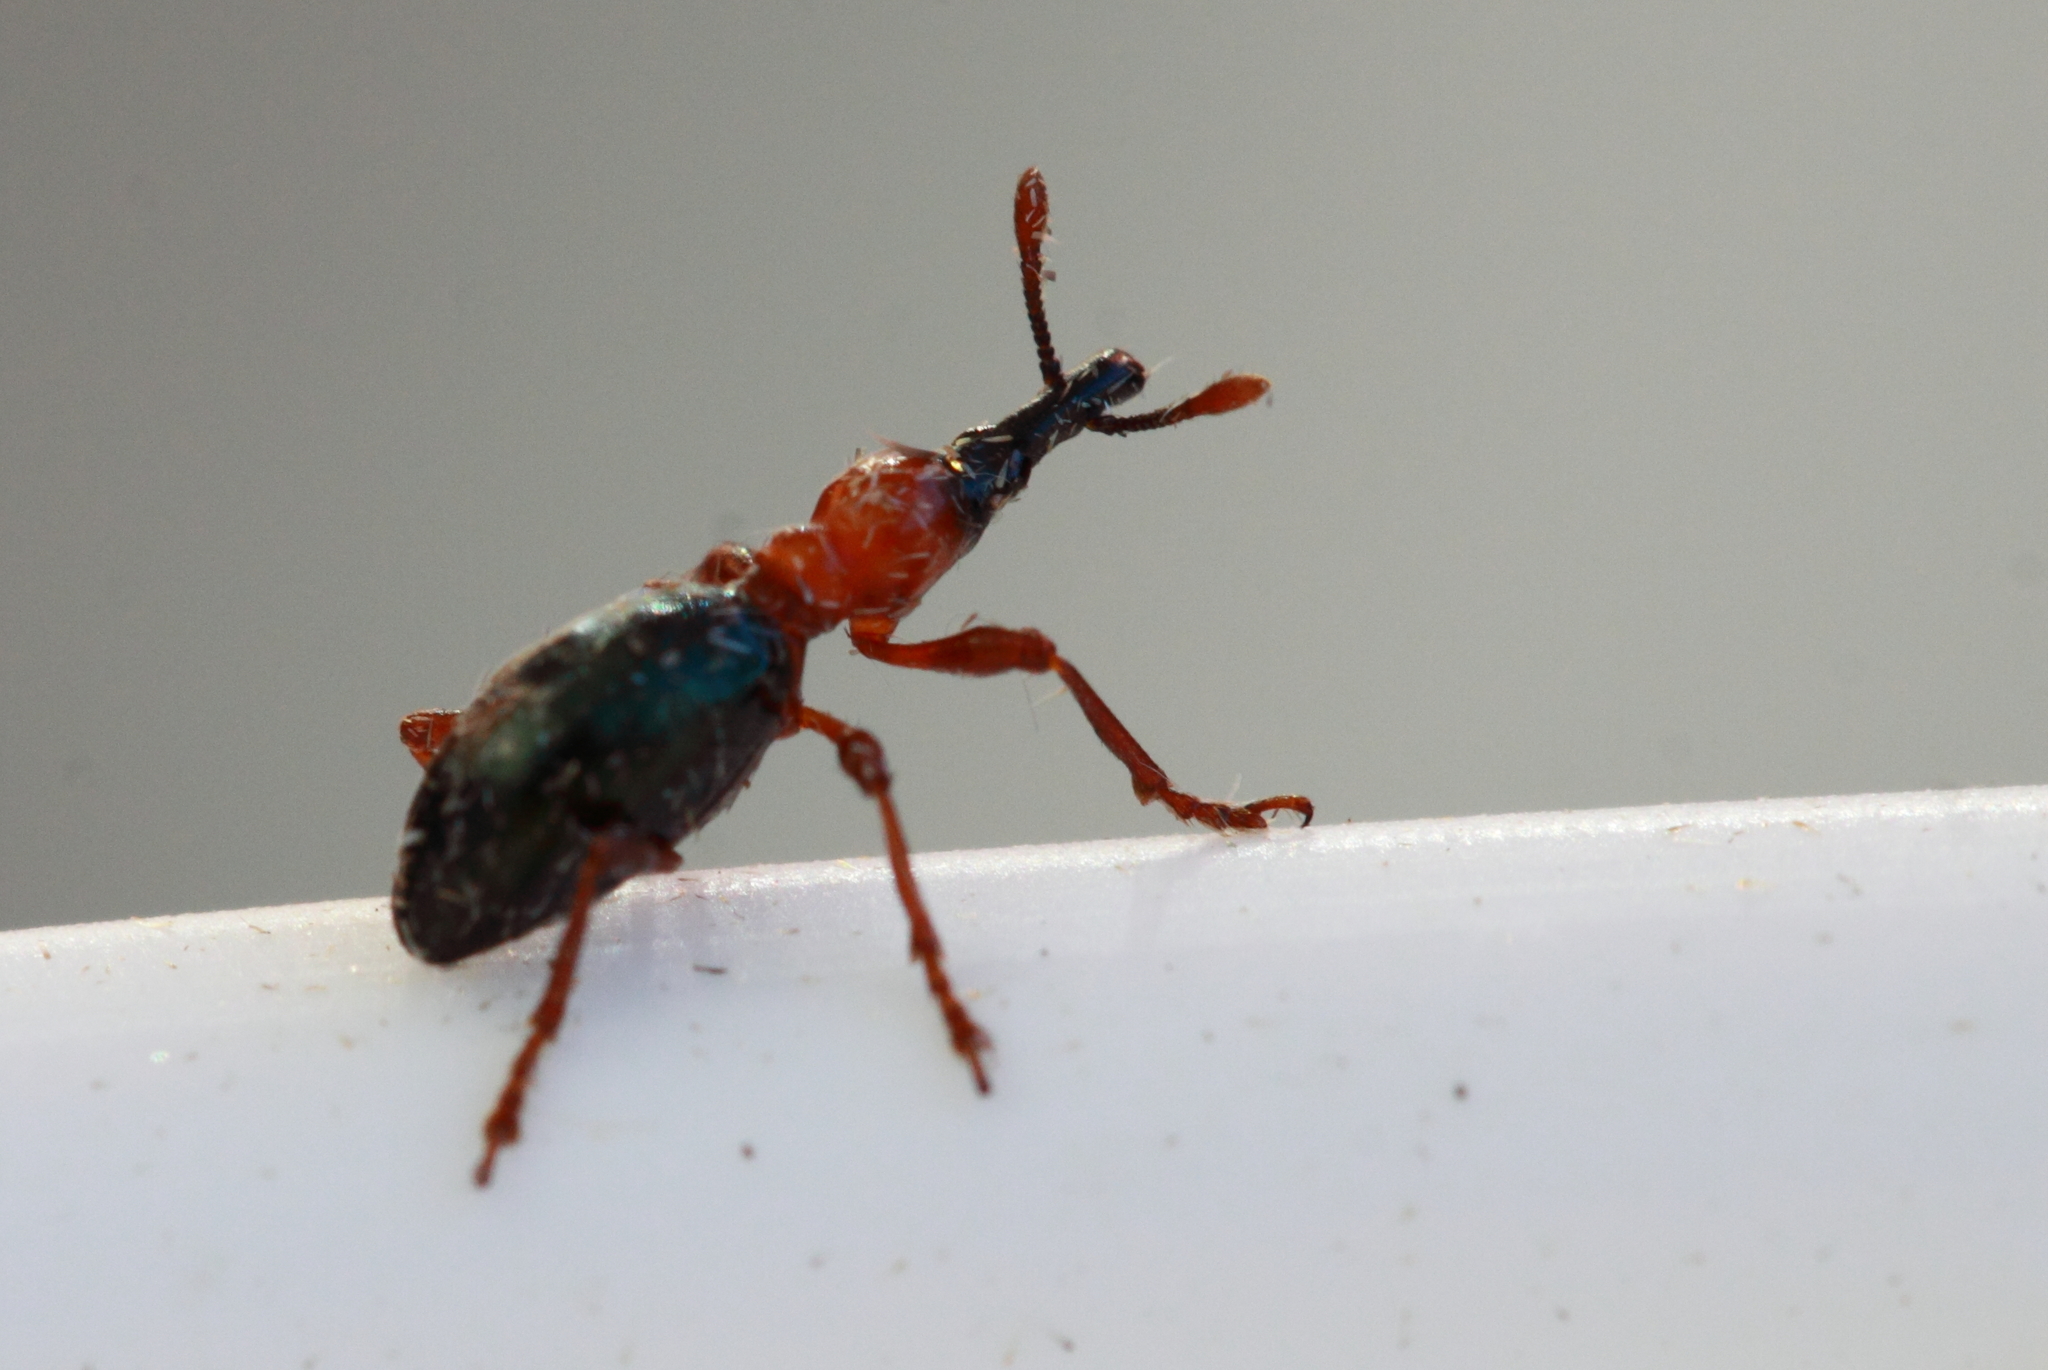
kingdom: Animalia
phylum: Arthropoda
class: Insecta
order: Coleoptera
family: Brentidae
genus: Cylas
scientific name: Cylas formicarius
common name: Sweetpotato weevil
